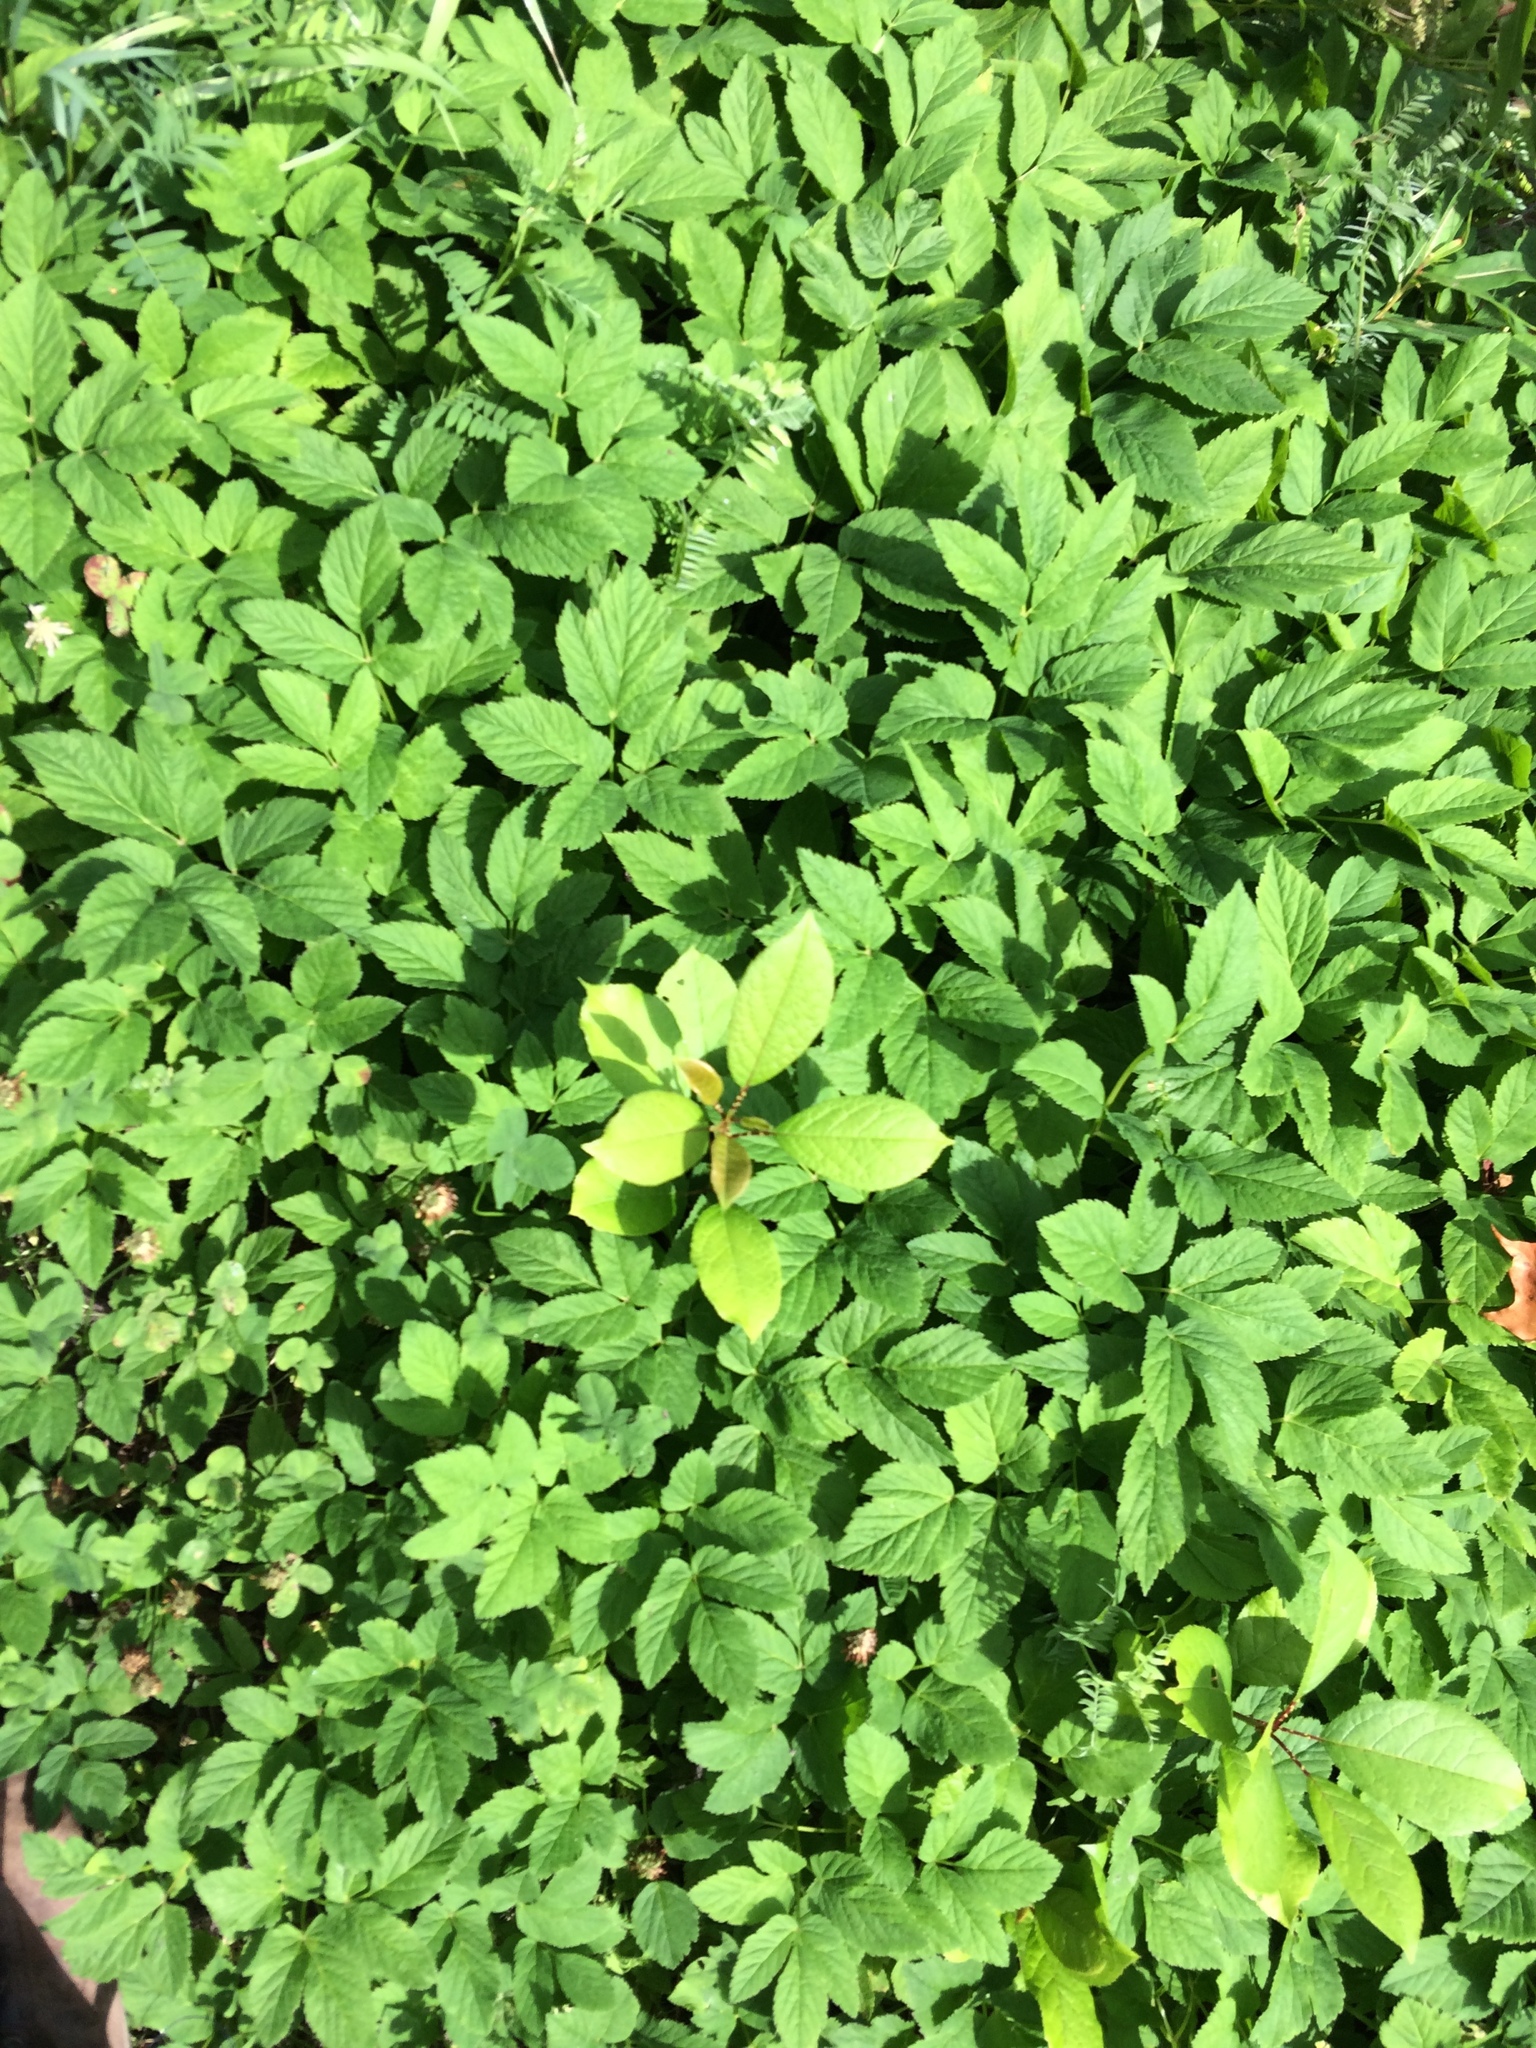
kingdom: Plantae
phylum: Tracheophyta
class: Magnoliopsida
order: Apiales
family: Apiaceae
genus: Aegopodium
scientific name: Aegopodium podagraria
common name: Ground-elder
